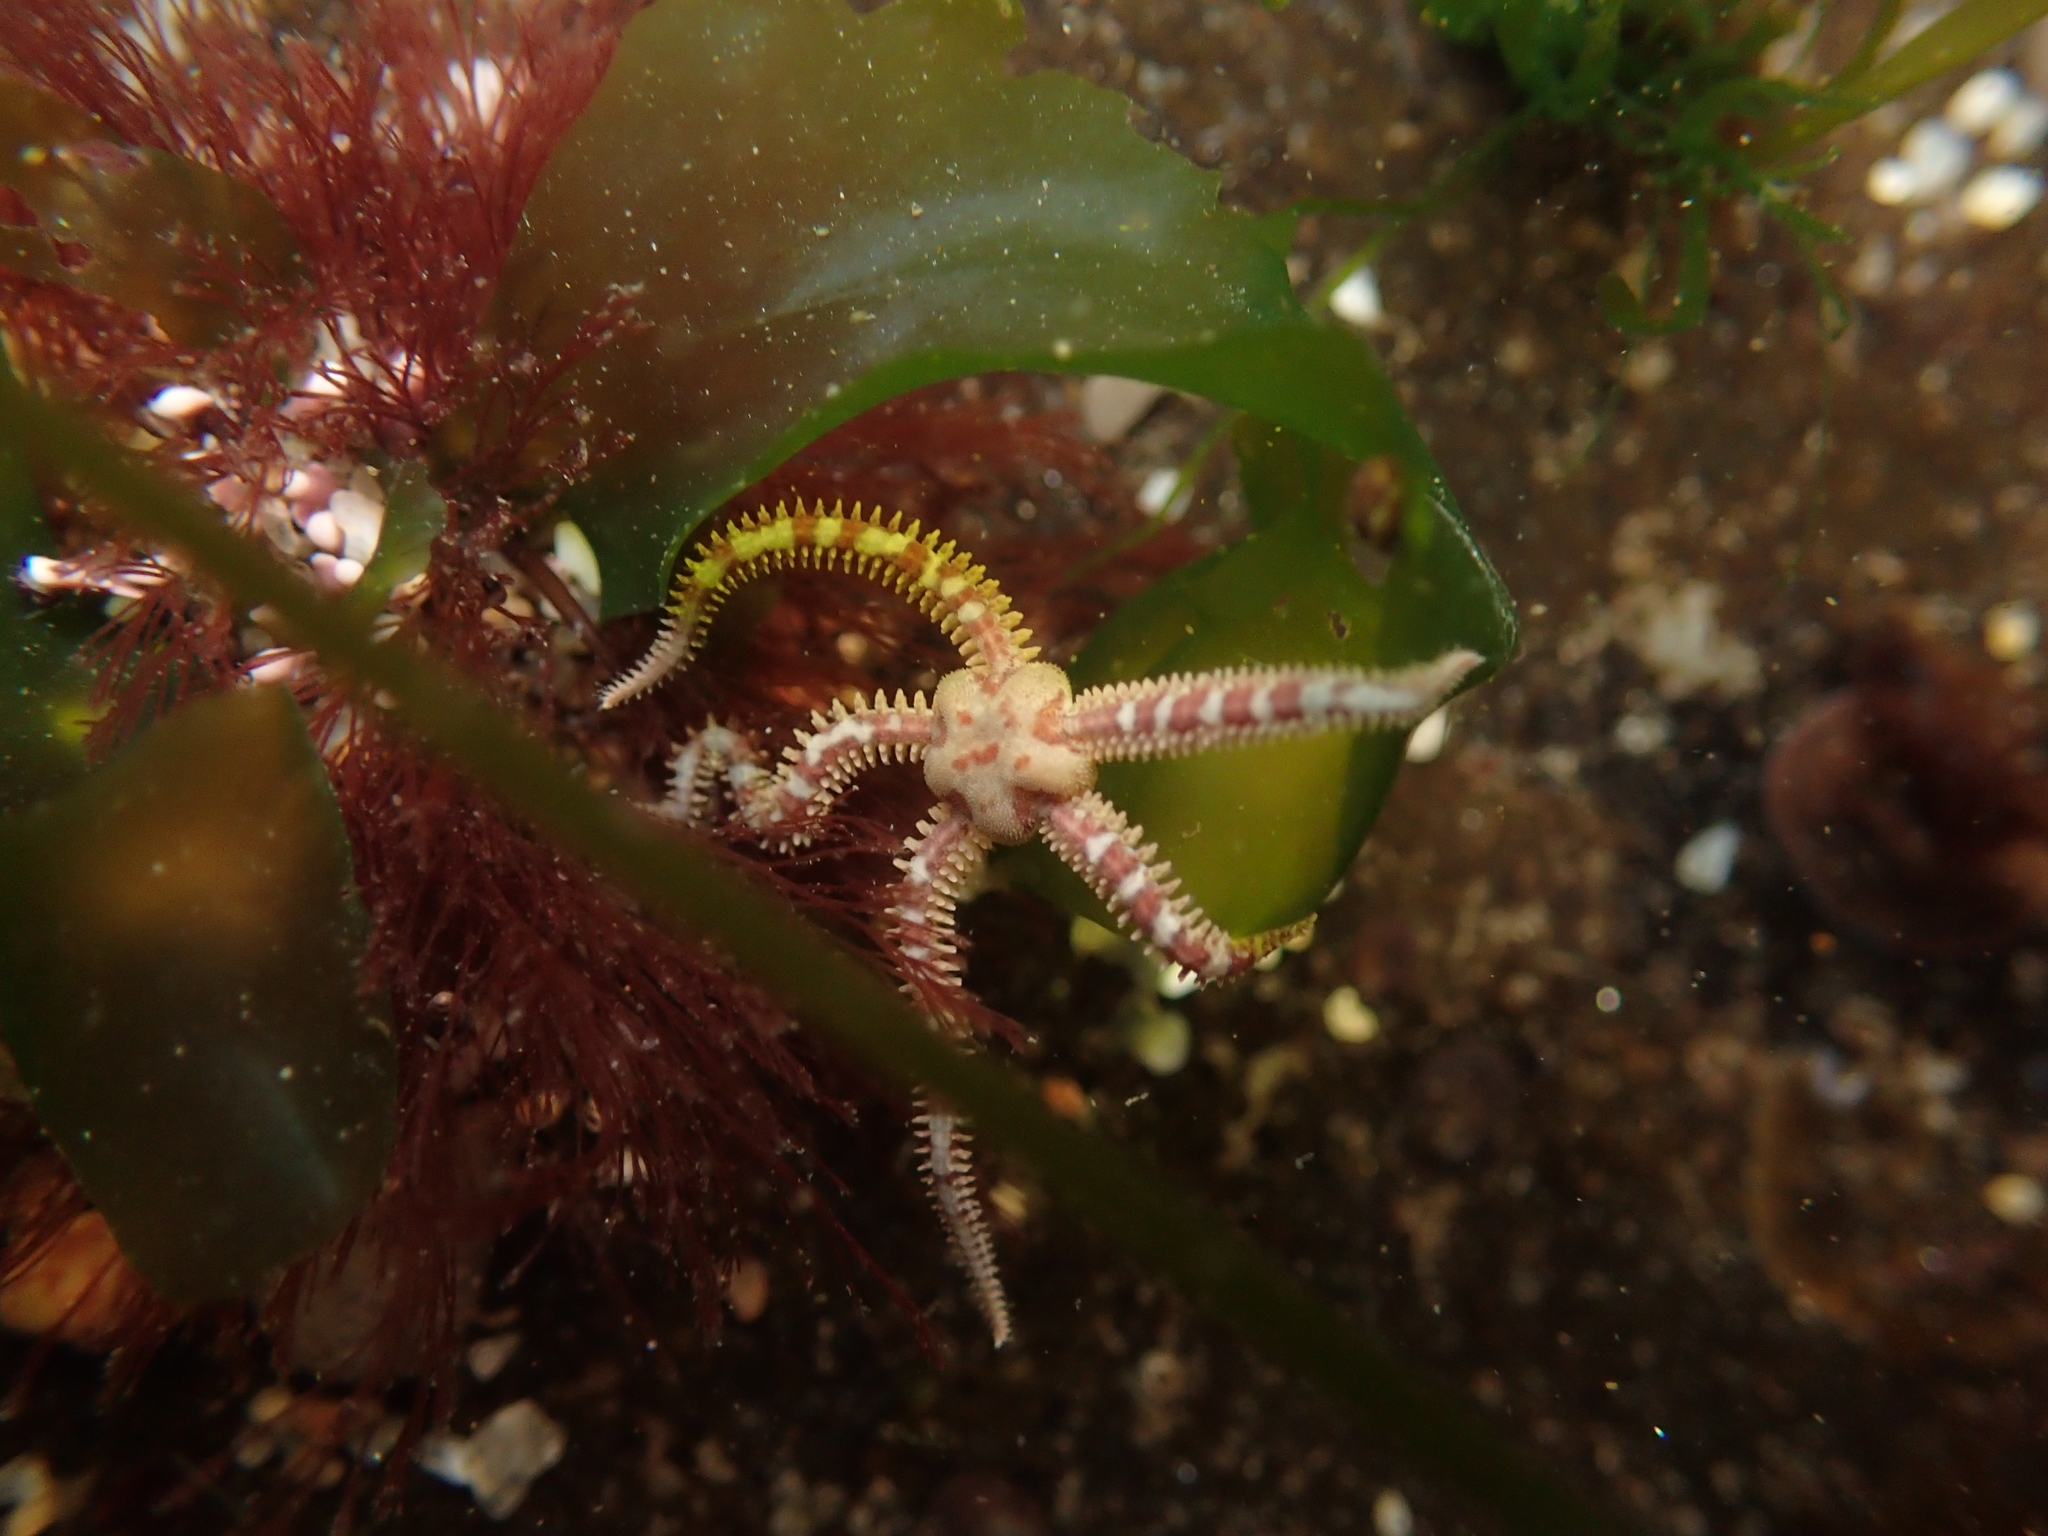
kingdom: Animalia
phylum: Echinodermata
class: Ophiuroidea
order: Amphilepidida
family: Ophiopholidae
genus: Ophiopholis
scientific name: Ophiopholis aculeata
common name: Crevice brittlestar
